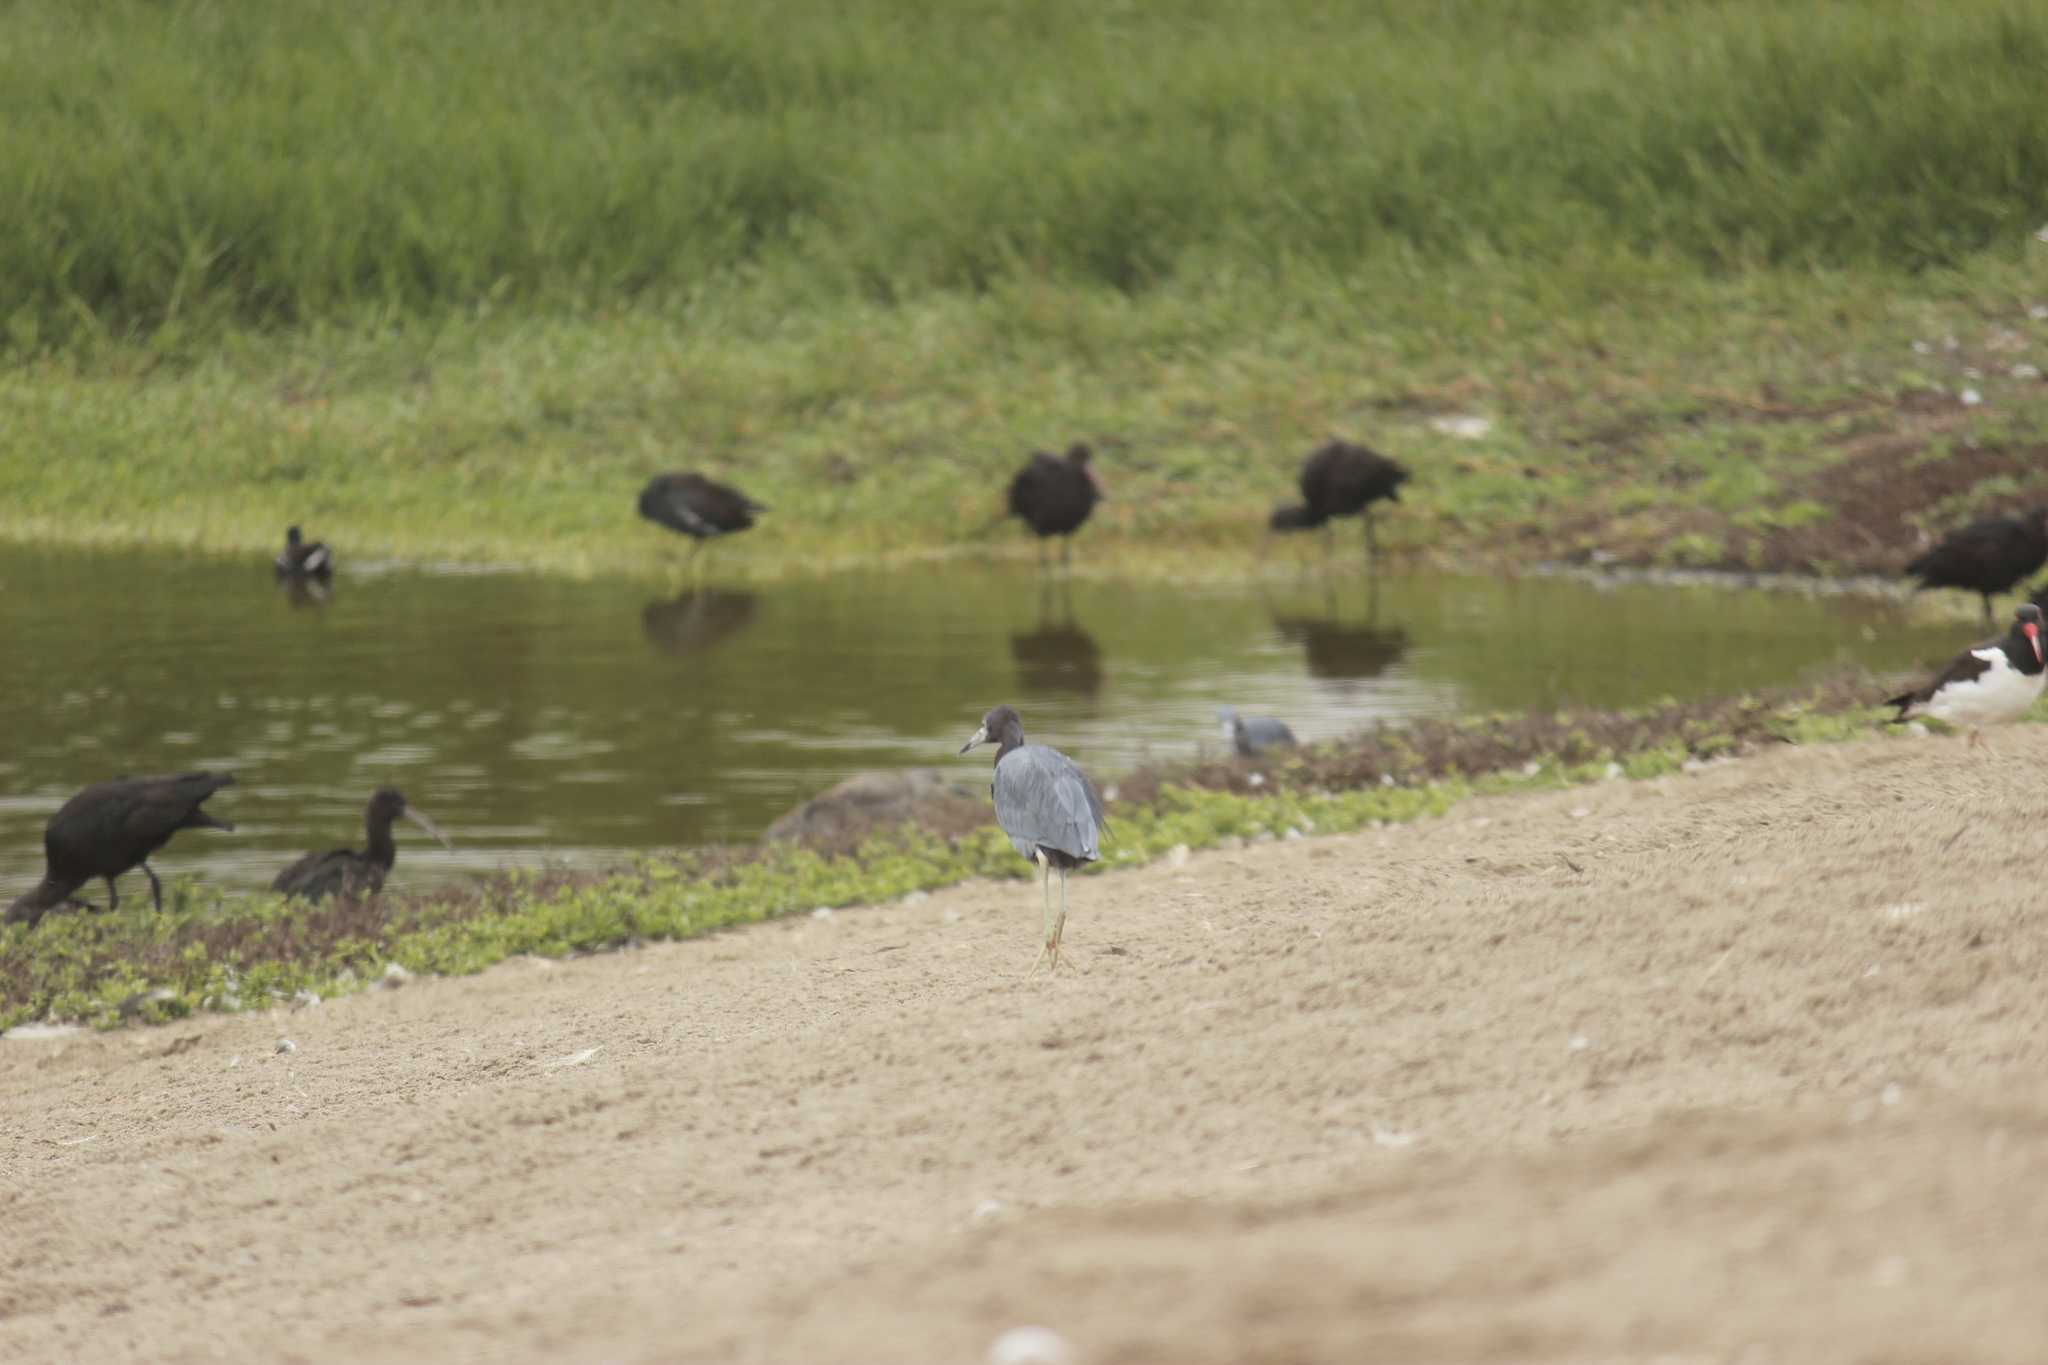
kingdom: Animalia
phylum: Chordata
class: Aves
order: Pelecaniformes
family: Ardeidae
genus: Egretta
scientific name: Egretta caerulea
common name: Little blue heron
